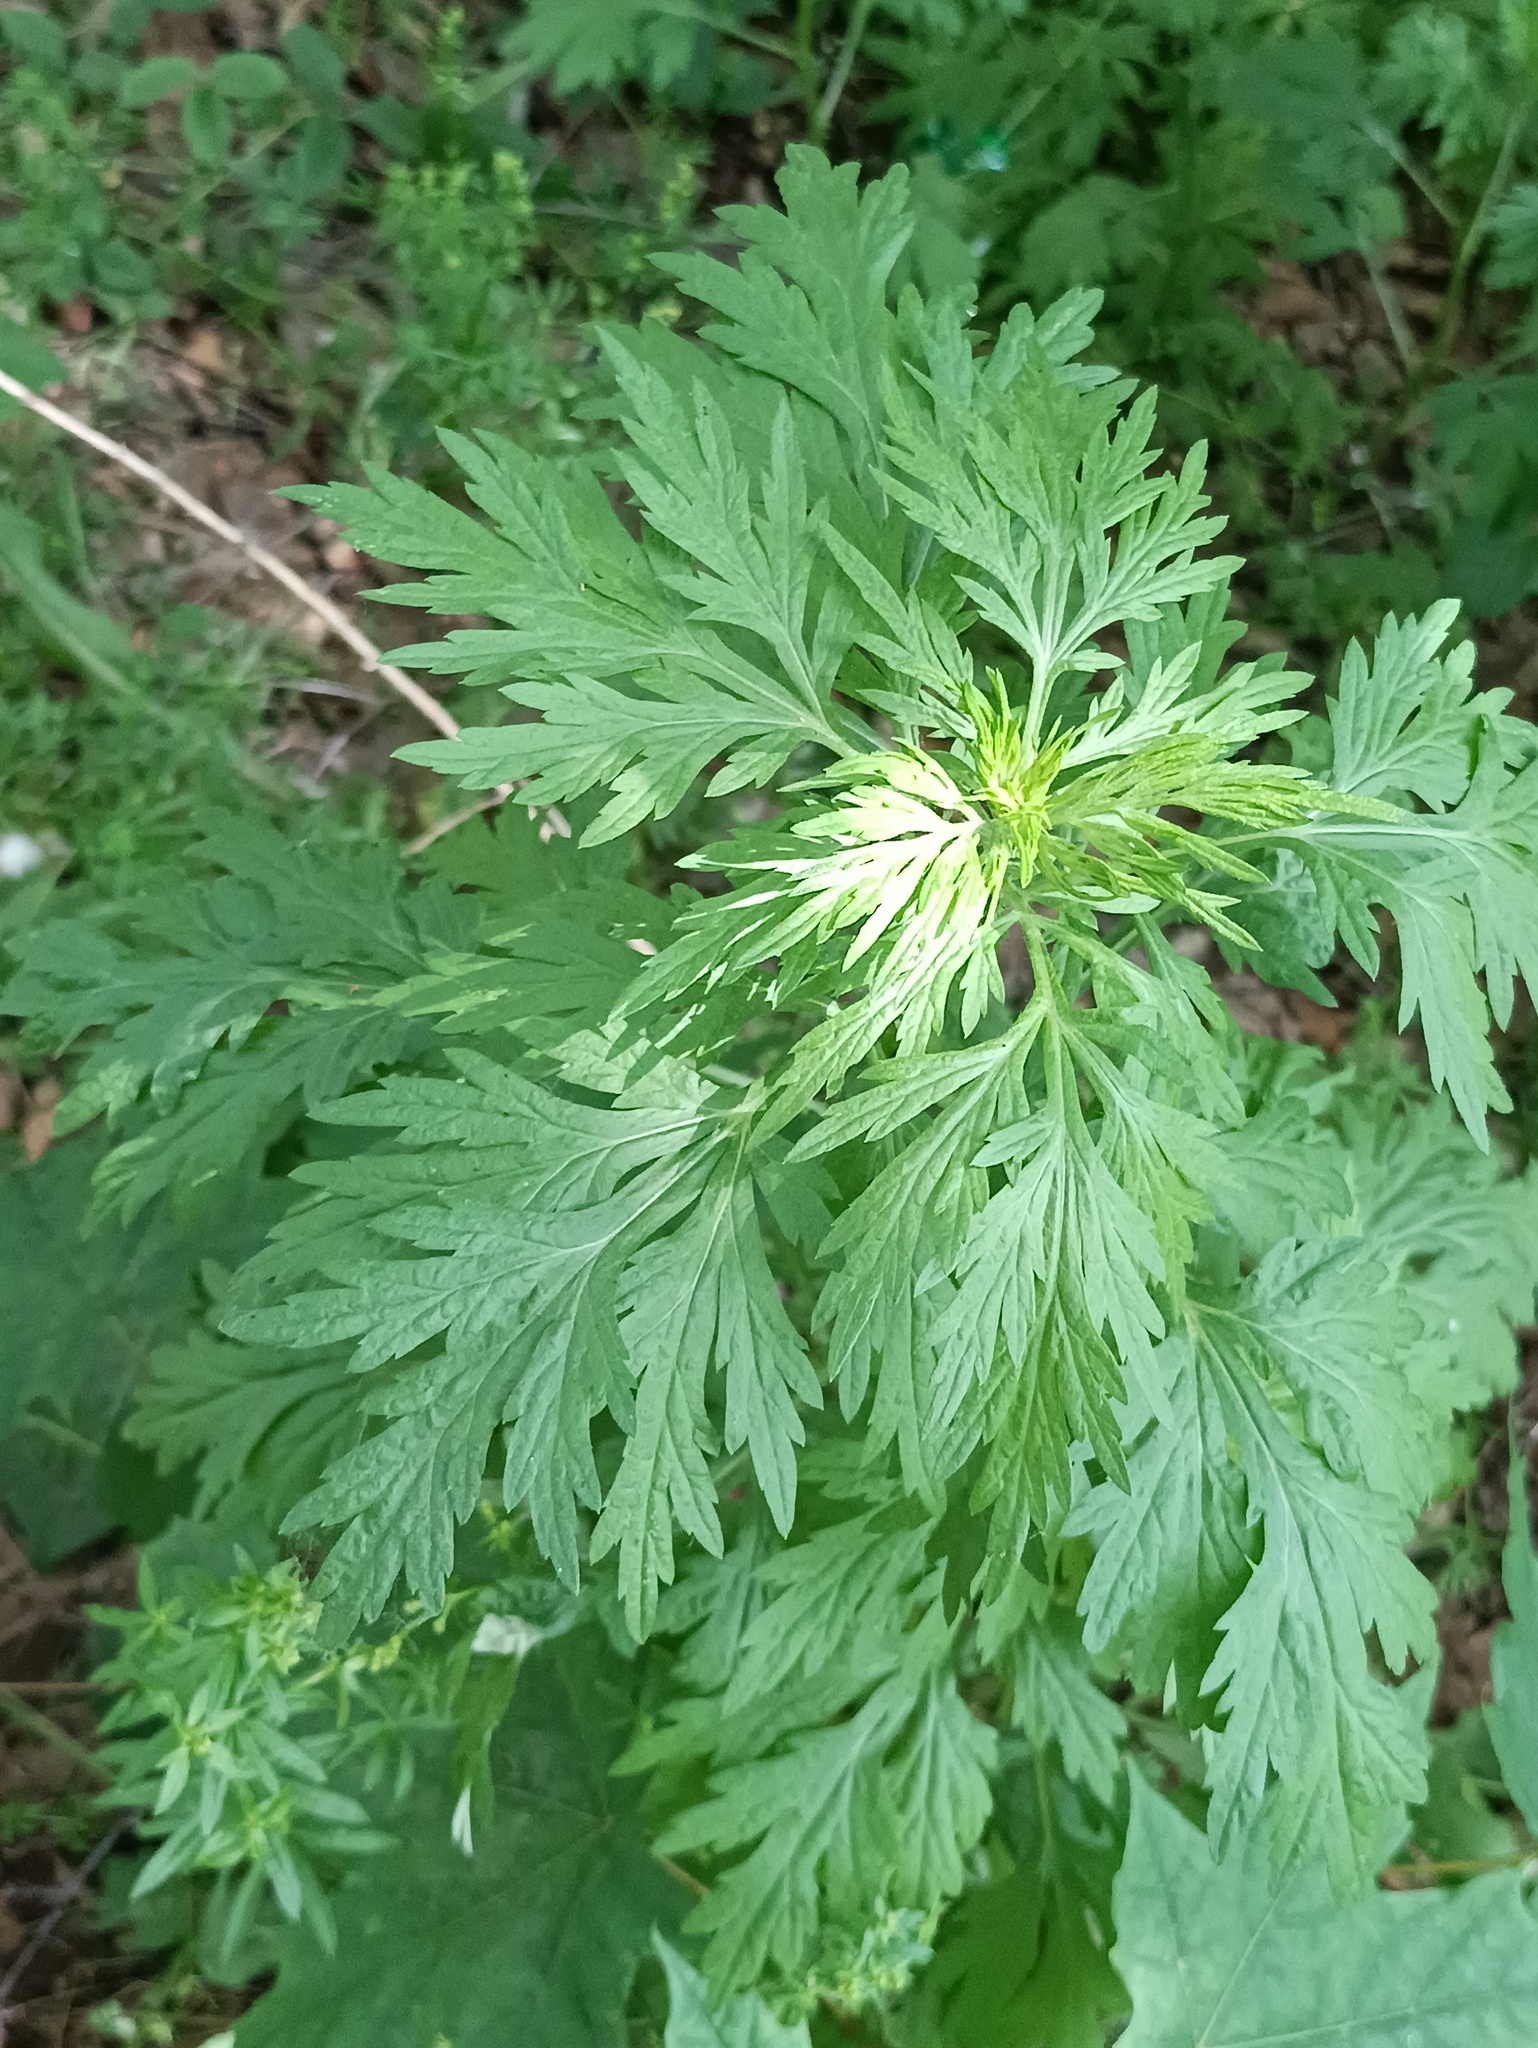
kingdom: Plantae
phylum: Tracheophyta
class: Magnoliopsida
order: Asterales
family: Asteraceae
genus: Artemisia
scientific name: Artemisia vulgaris
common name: Mugwort
